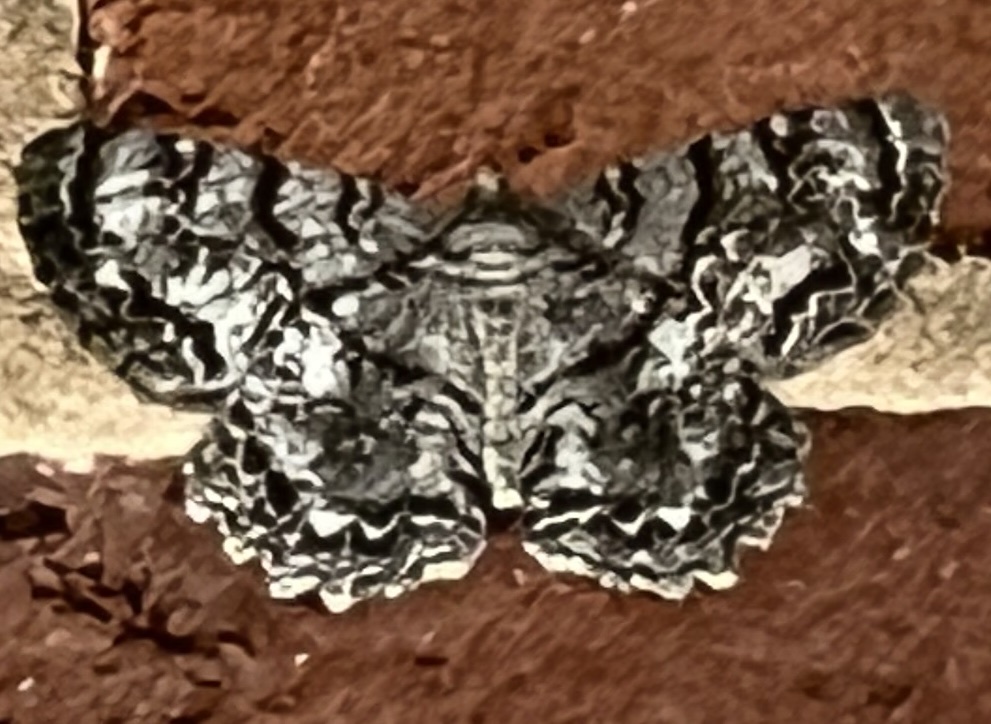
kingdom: Animalia
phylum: Arthropoda
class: Insecta
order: Lepidoptera
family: Geometridae
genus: Epimecis
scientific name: Epimecis hortaria
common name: Tulip-tree beauty
